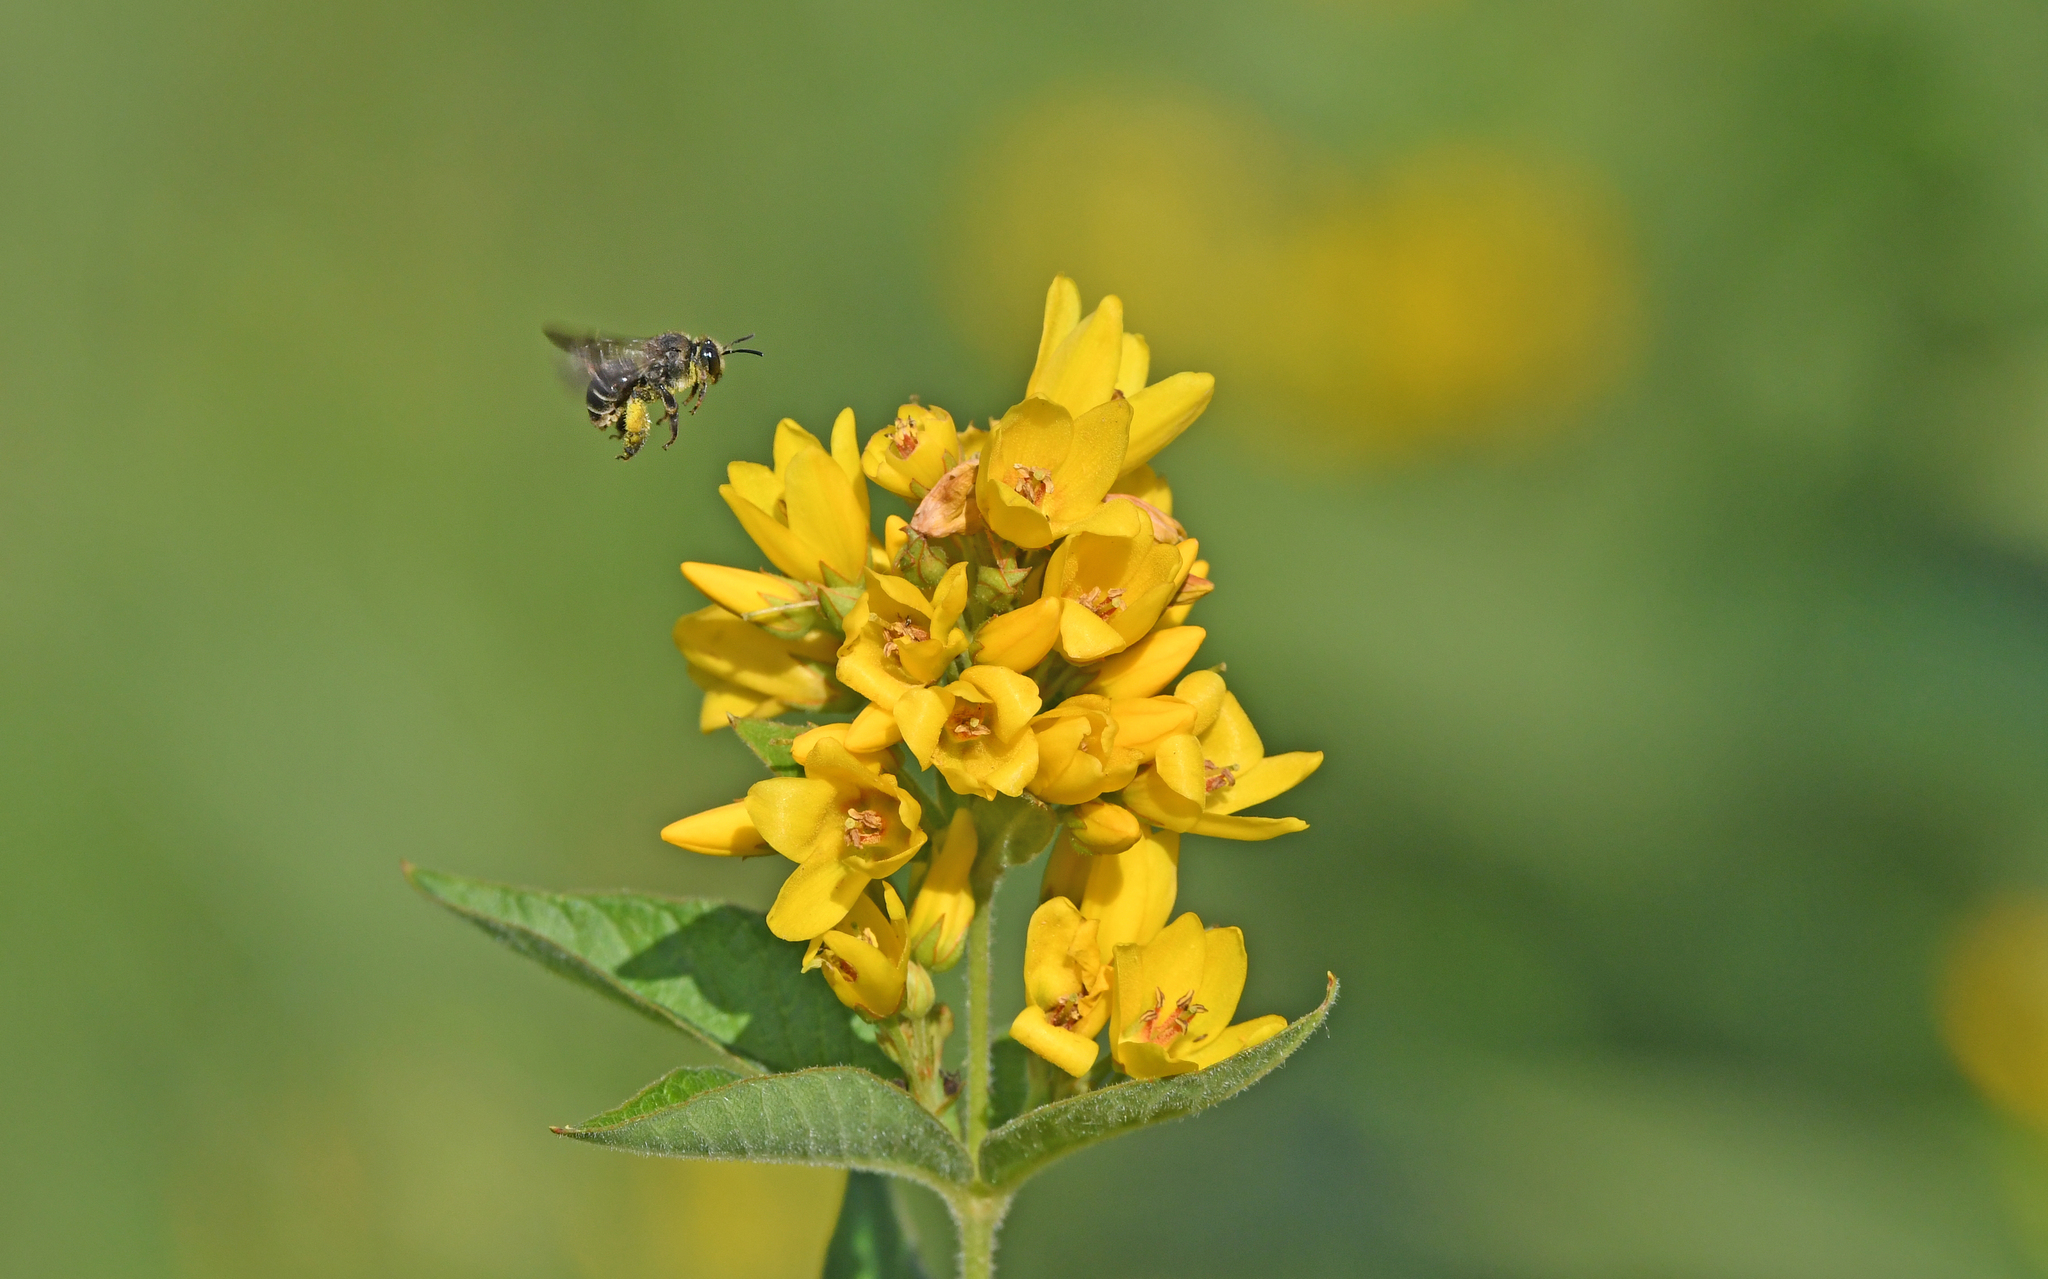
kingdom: Animalia
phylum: Arthropoda
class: Insecta
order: Hymenoptera
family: Melittidae
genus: Macropis
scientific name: Macropis europaea
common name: Yellow loosestrife bee
